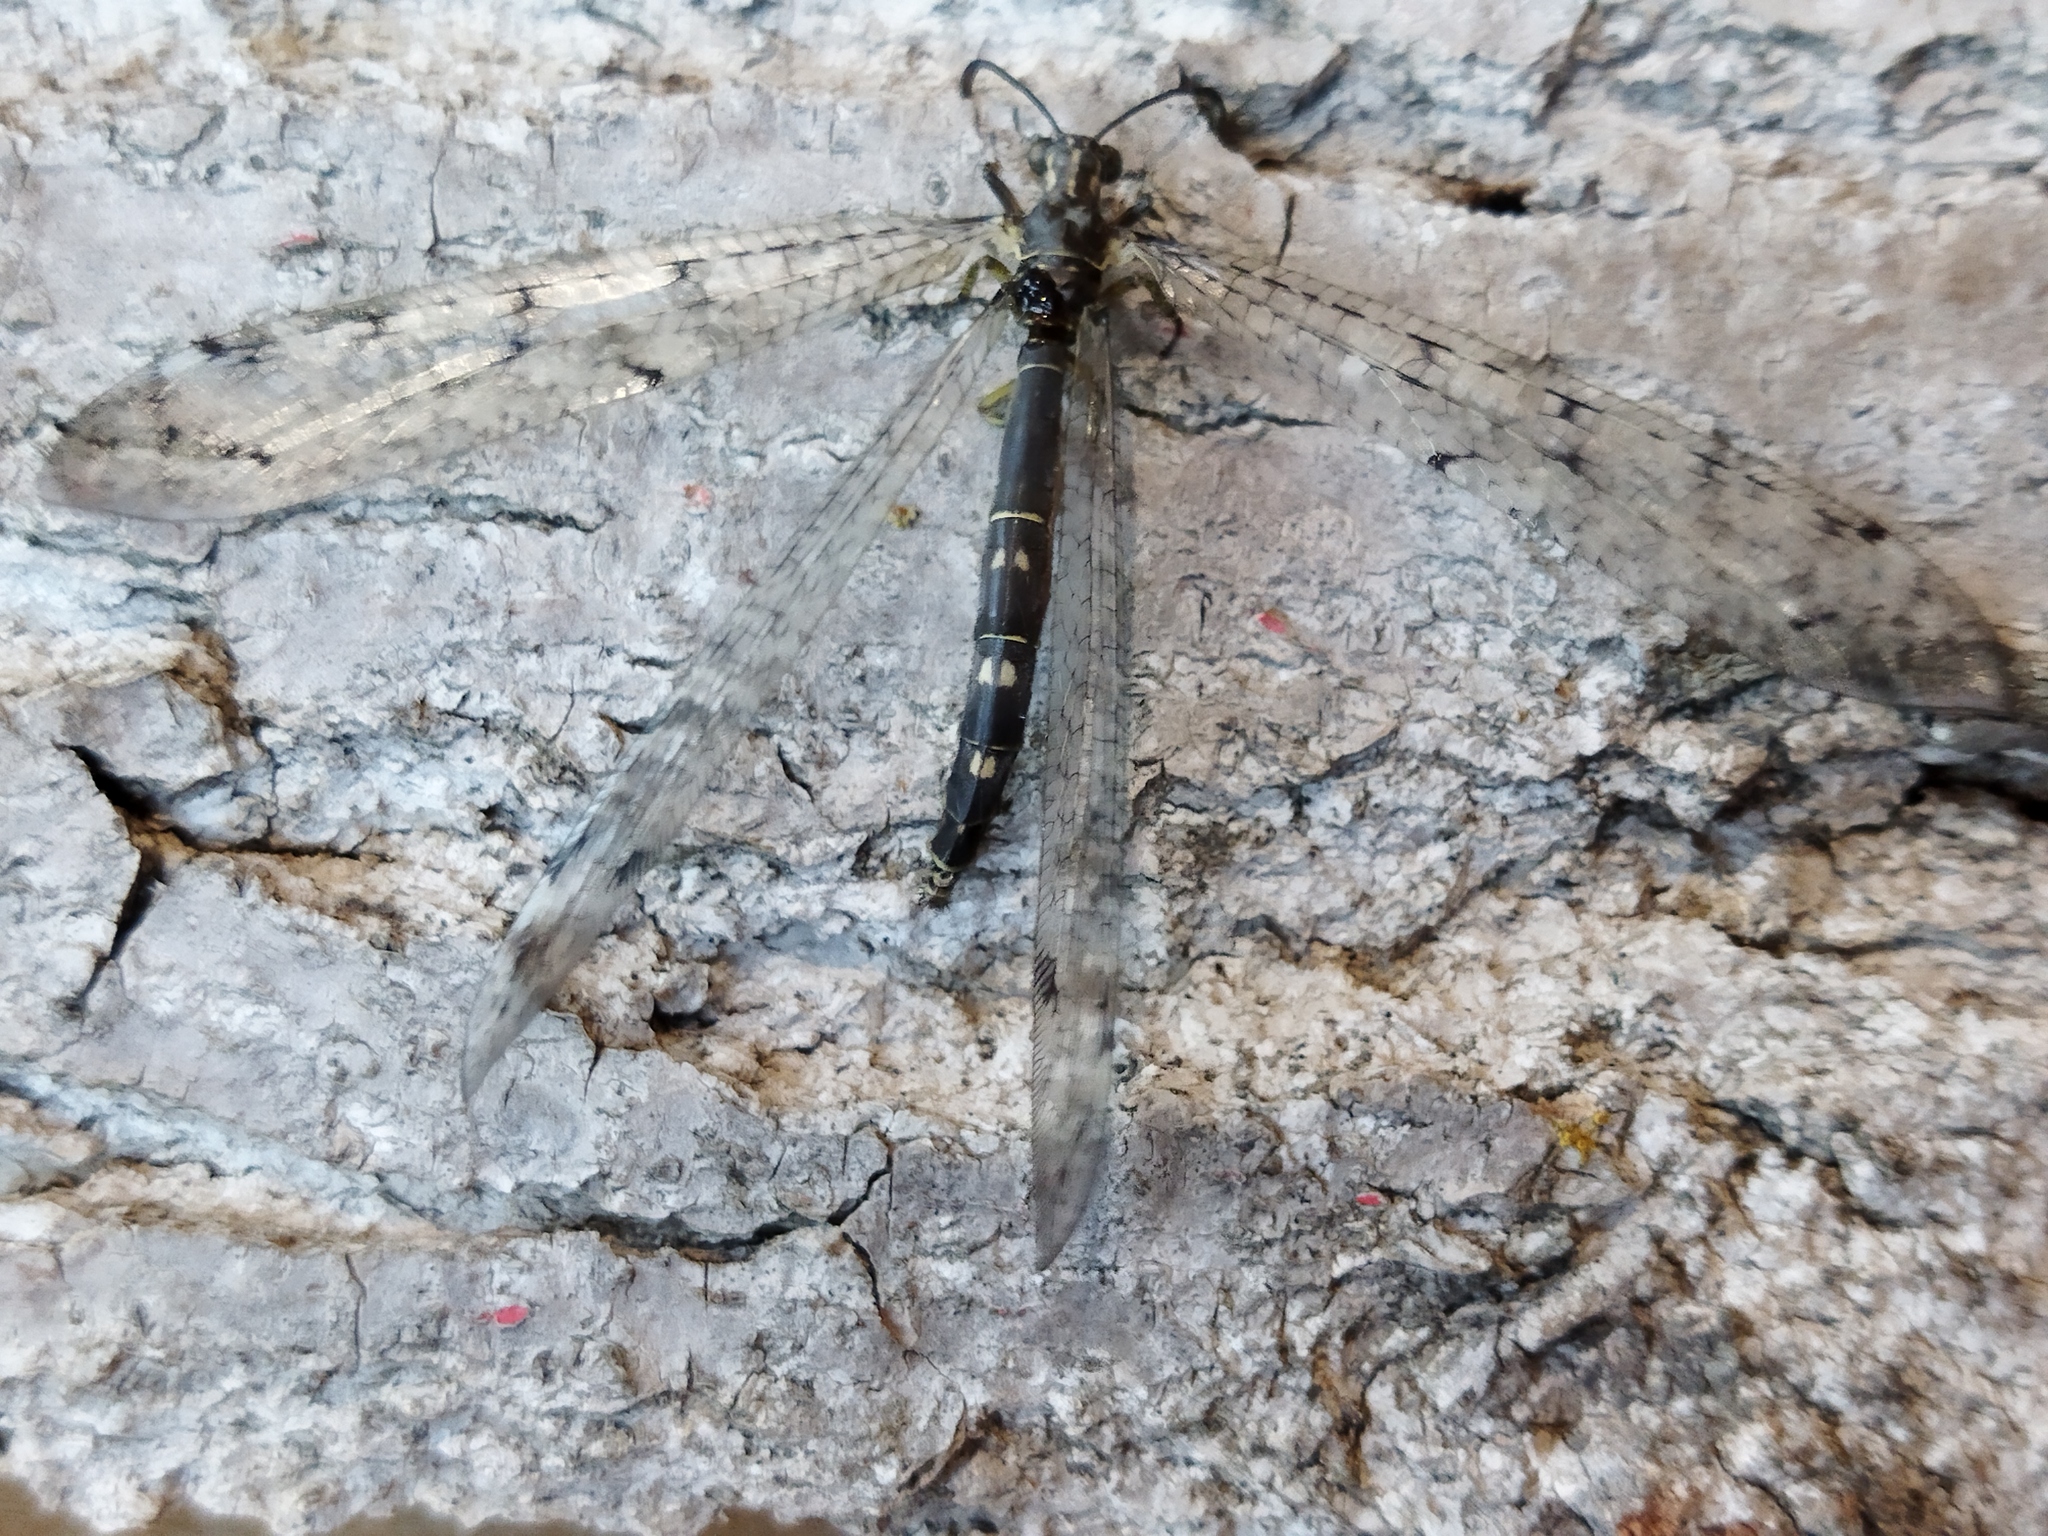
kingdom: Animalia
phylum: Arthropoda
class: Insecta
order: Neuroptera
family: Myrmeleontidae
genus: Distoleon
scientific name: Distoleon tetragrammicus
